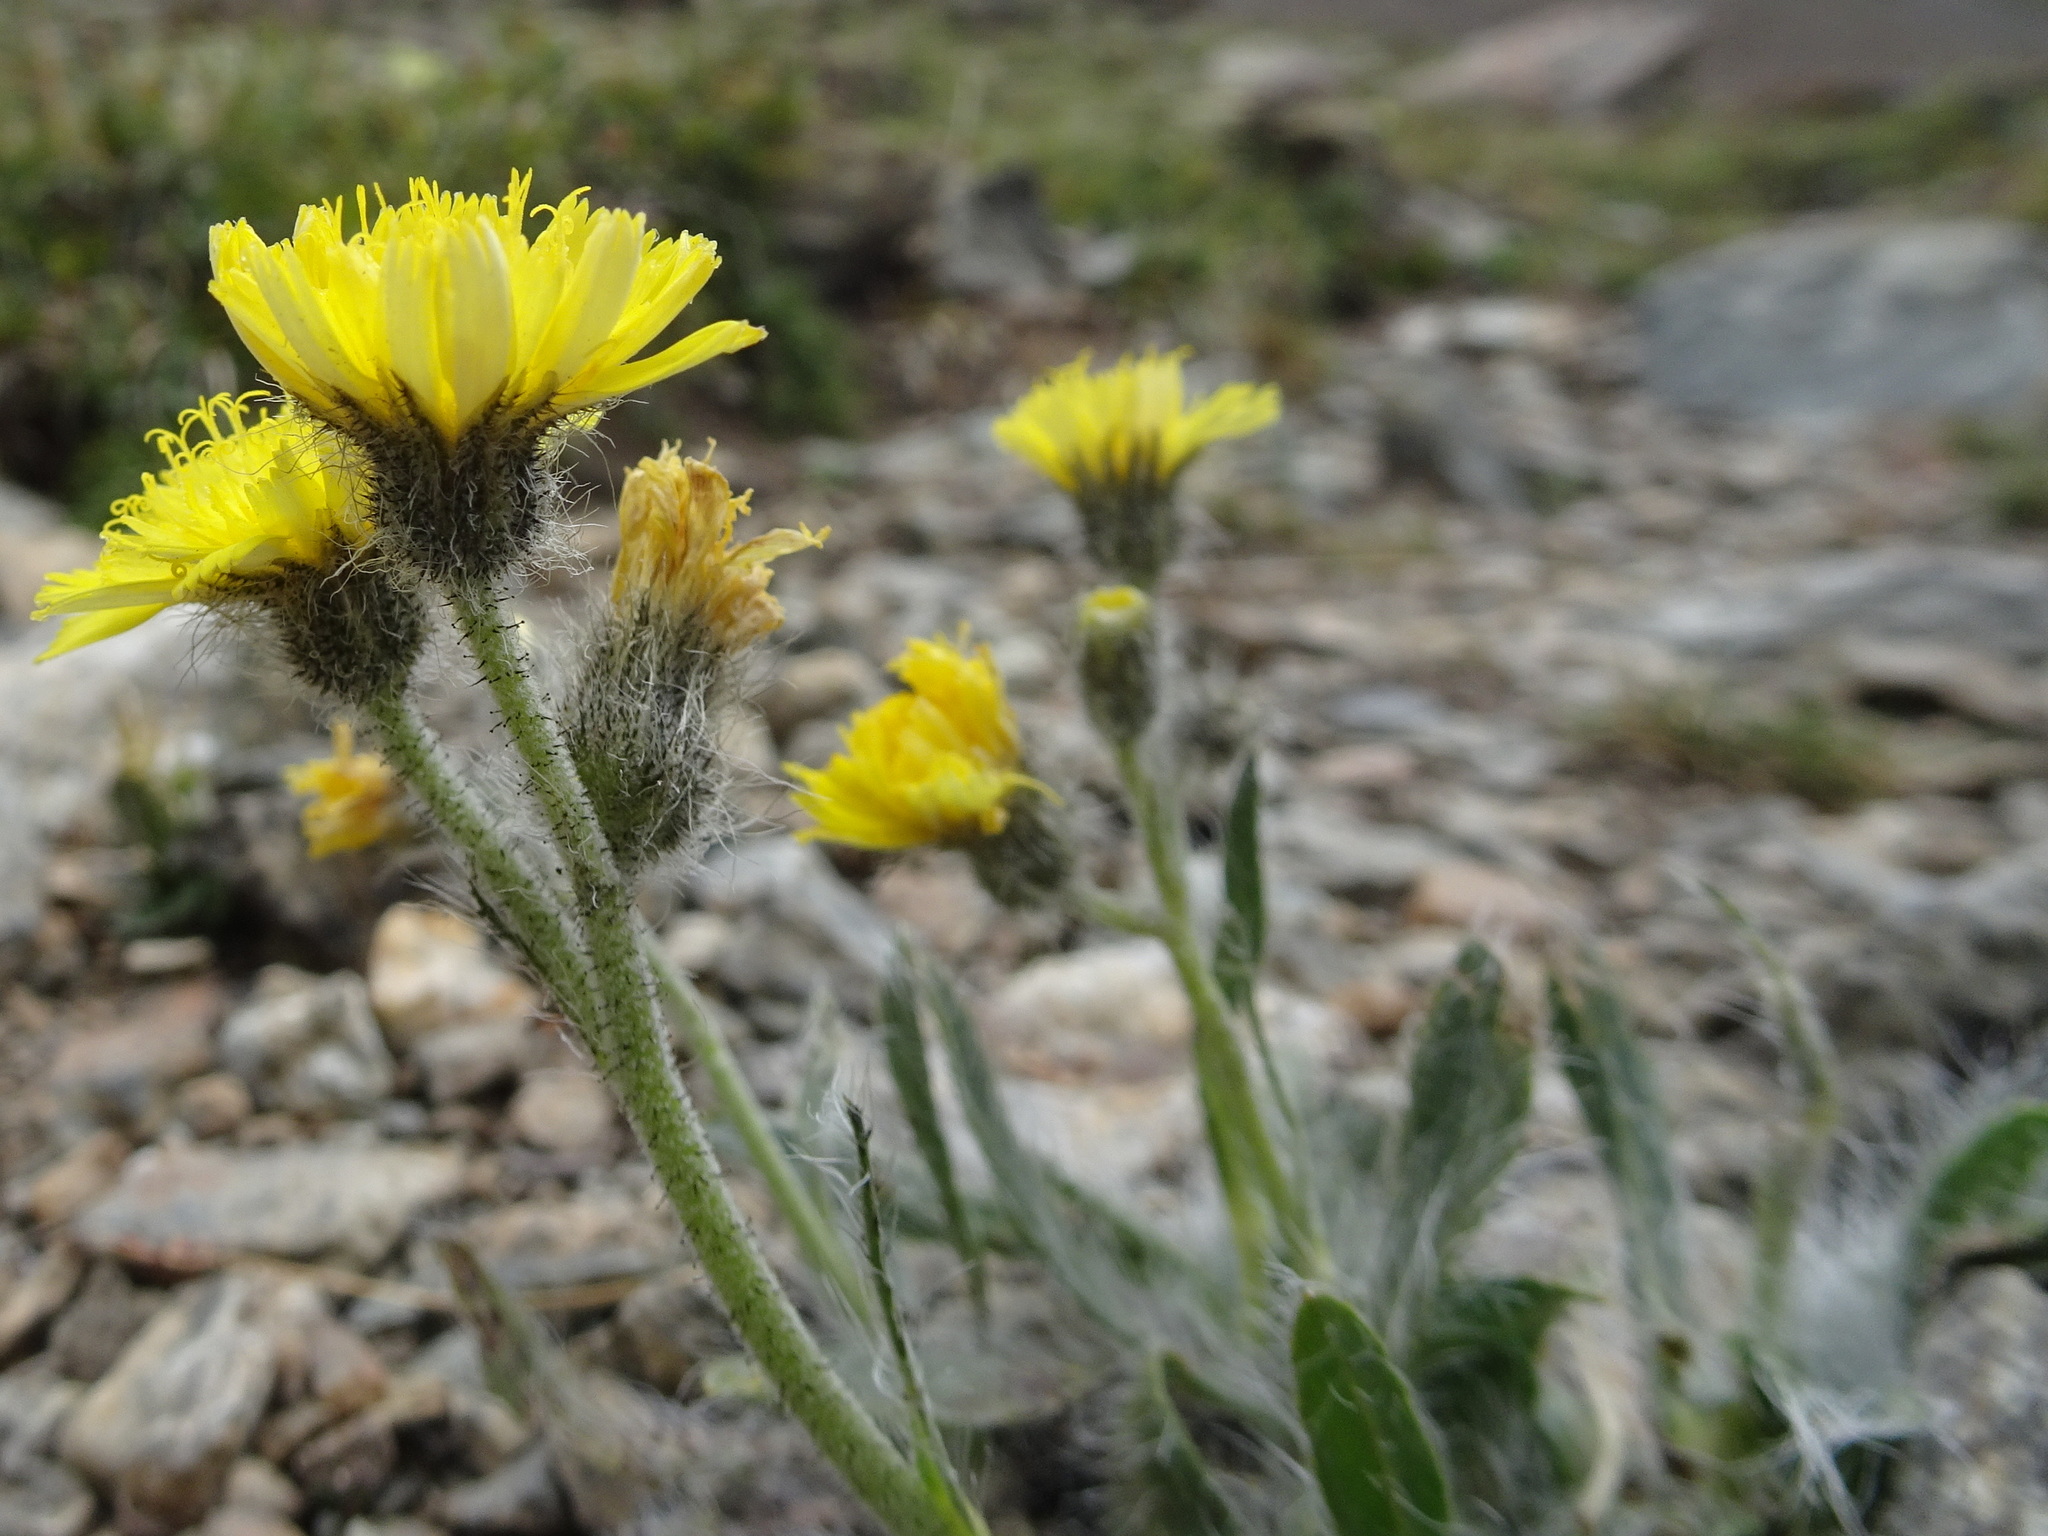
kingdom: Plantae
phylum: Tracheophyta
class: Magnoliopsida
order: Asterales
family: Asteraceae
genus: Pilosella
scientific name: Pilosella breviscapa
